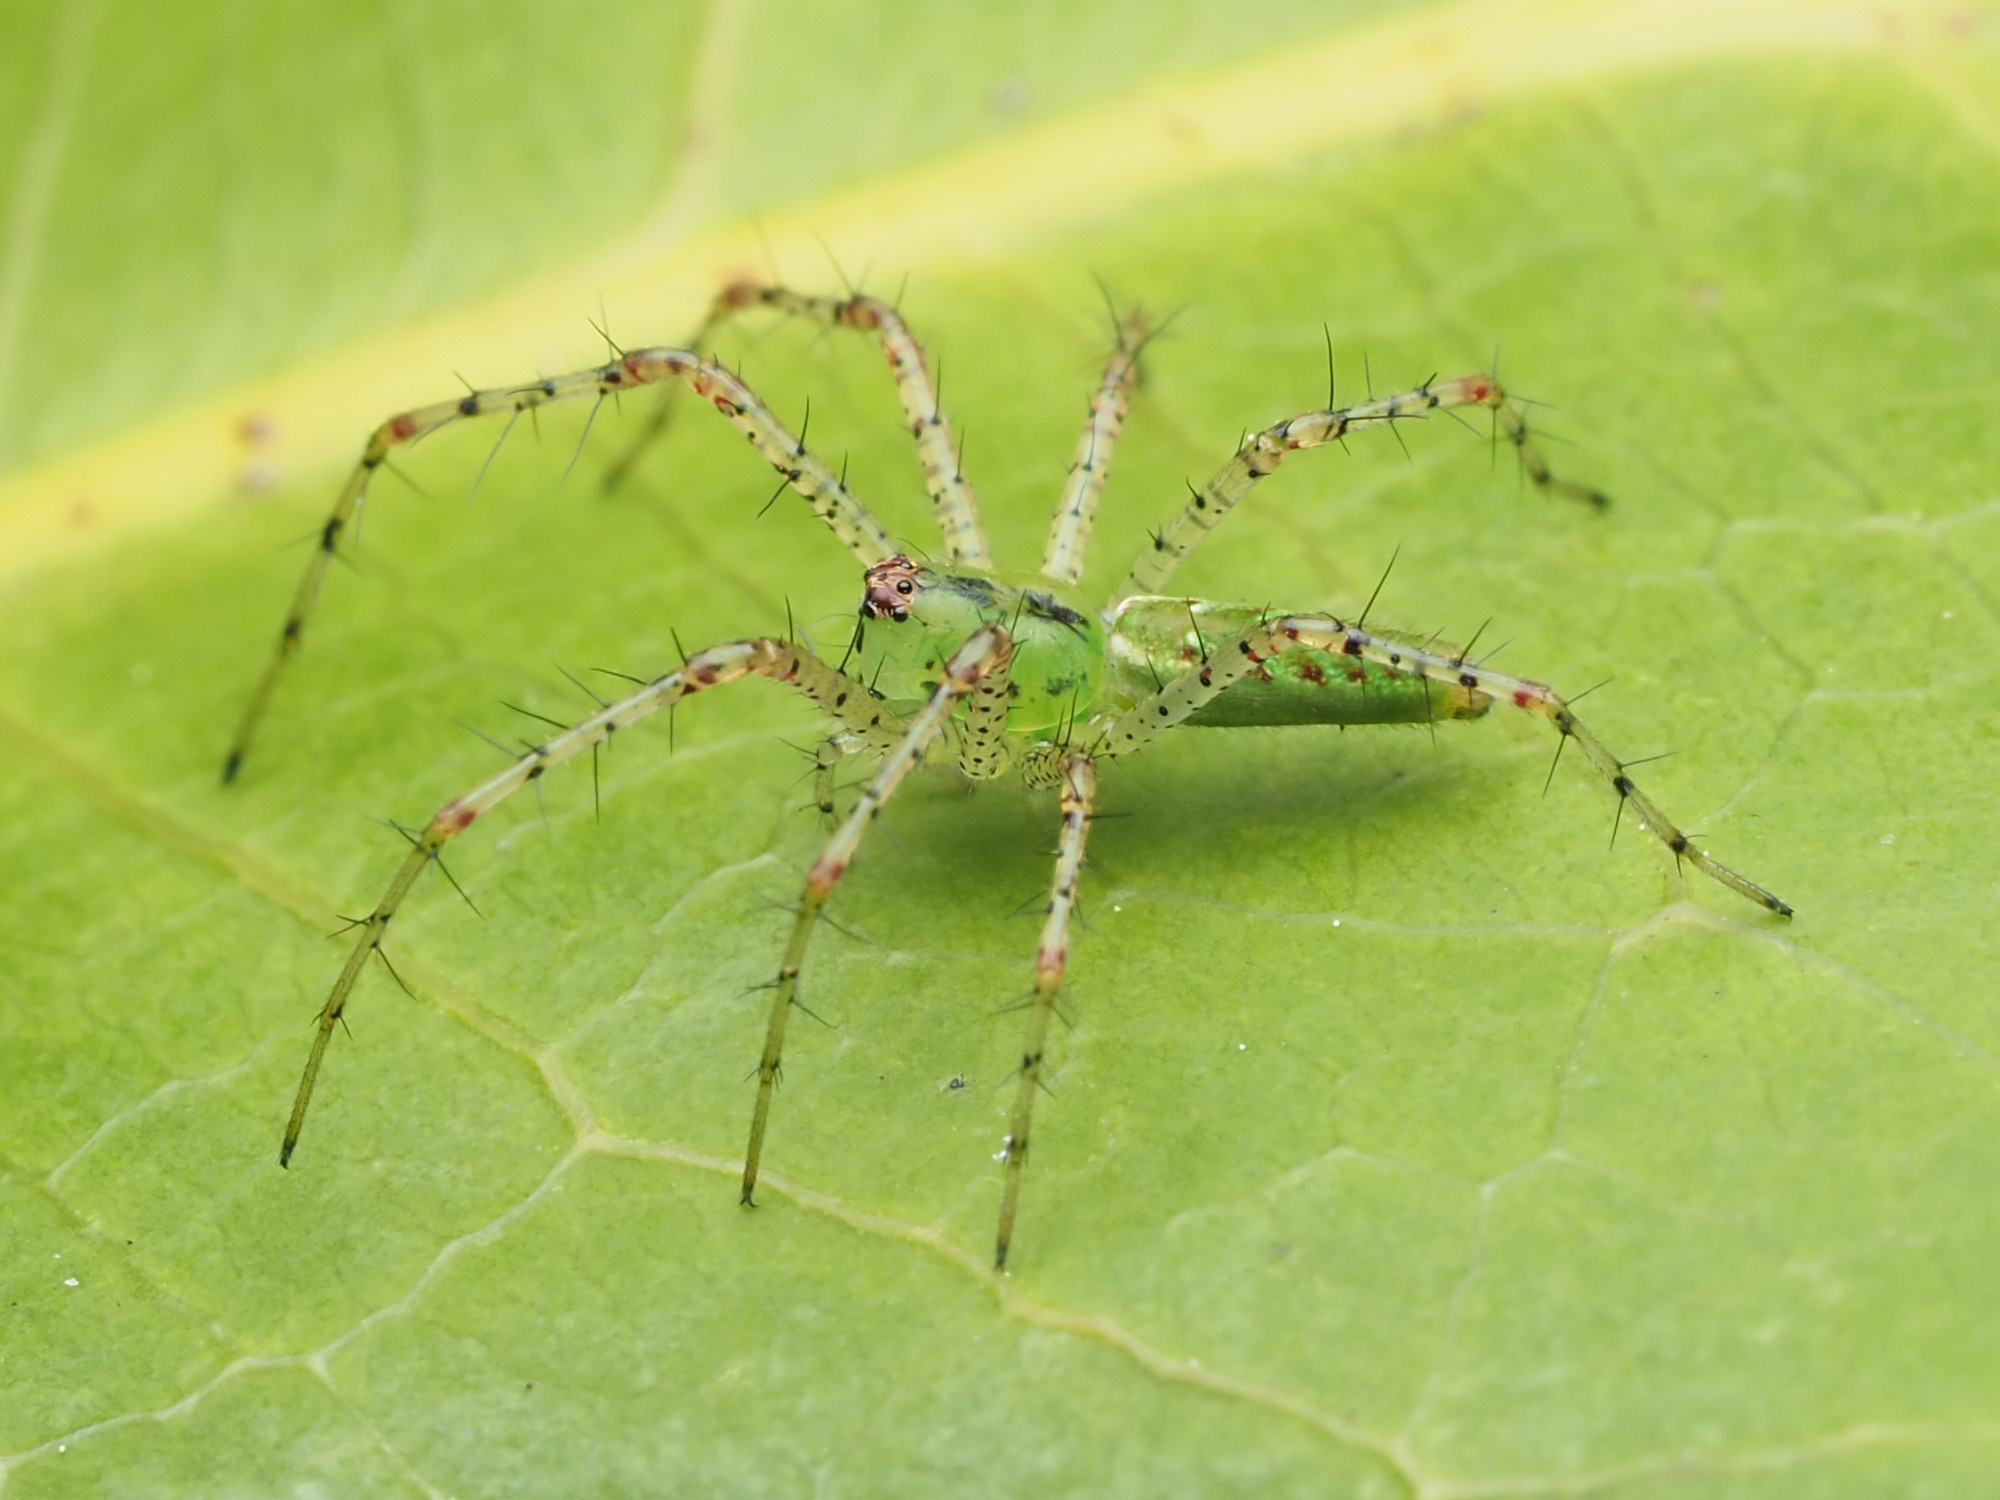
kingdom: Animalia
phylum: Arthropoda
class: Arachnida
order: Araneae
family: Oxyopidae
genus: Peucetia
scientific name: Peucetia viridans
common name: Lynx spiders
